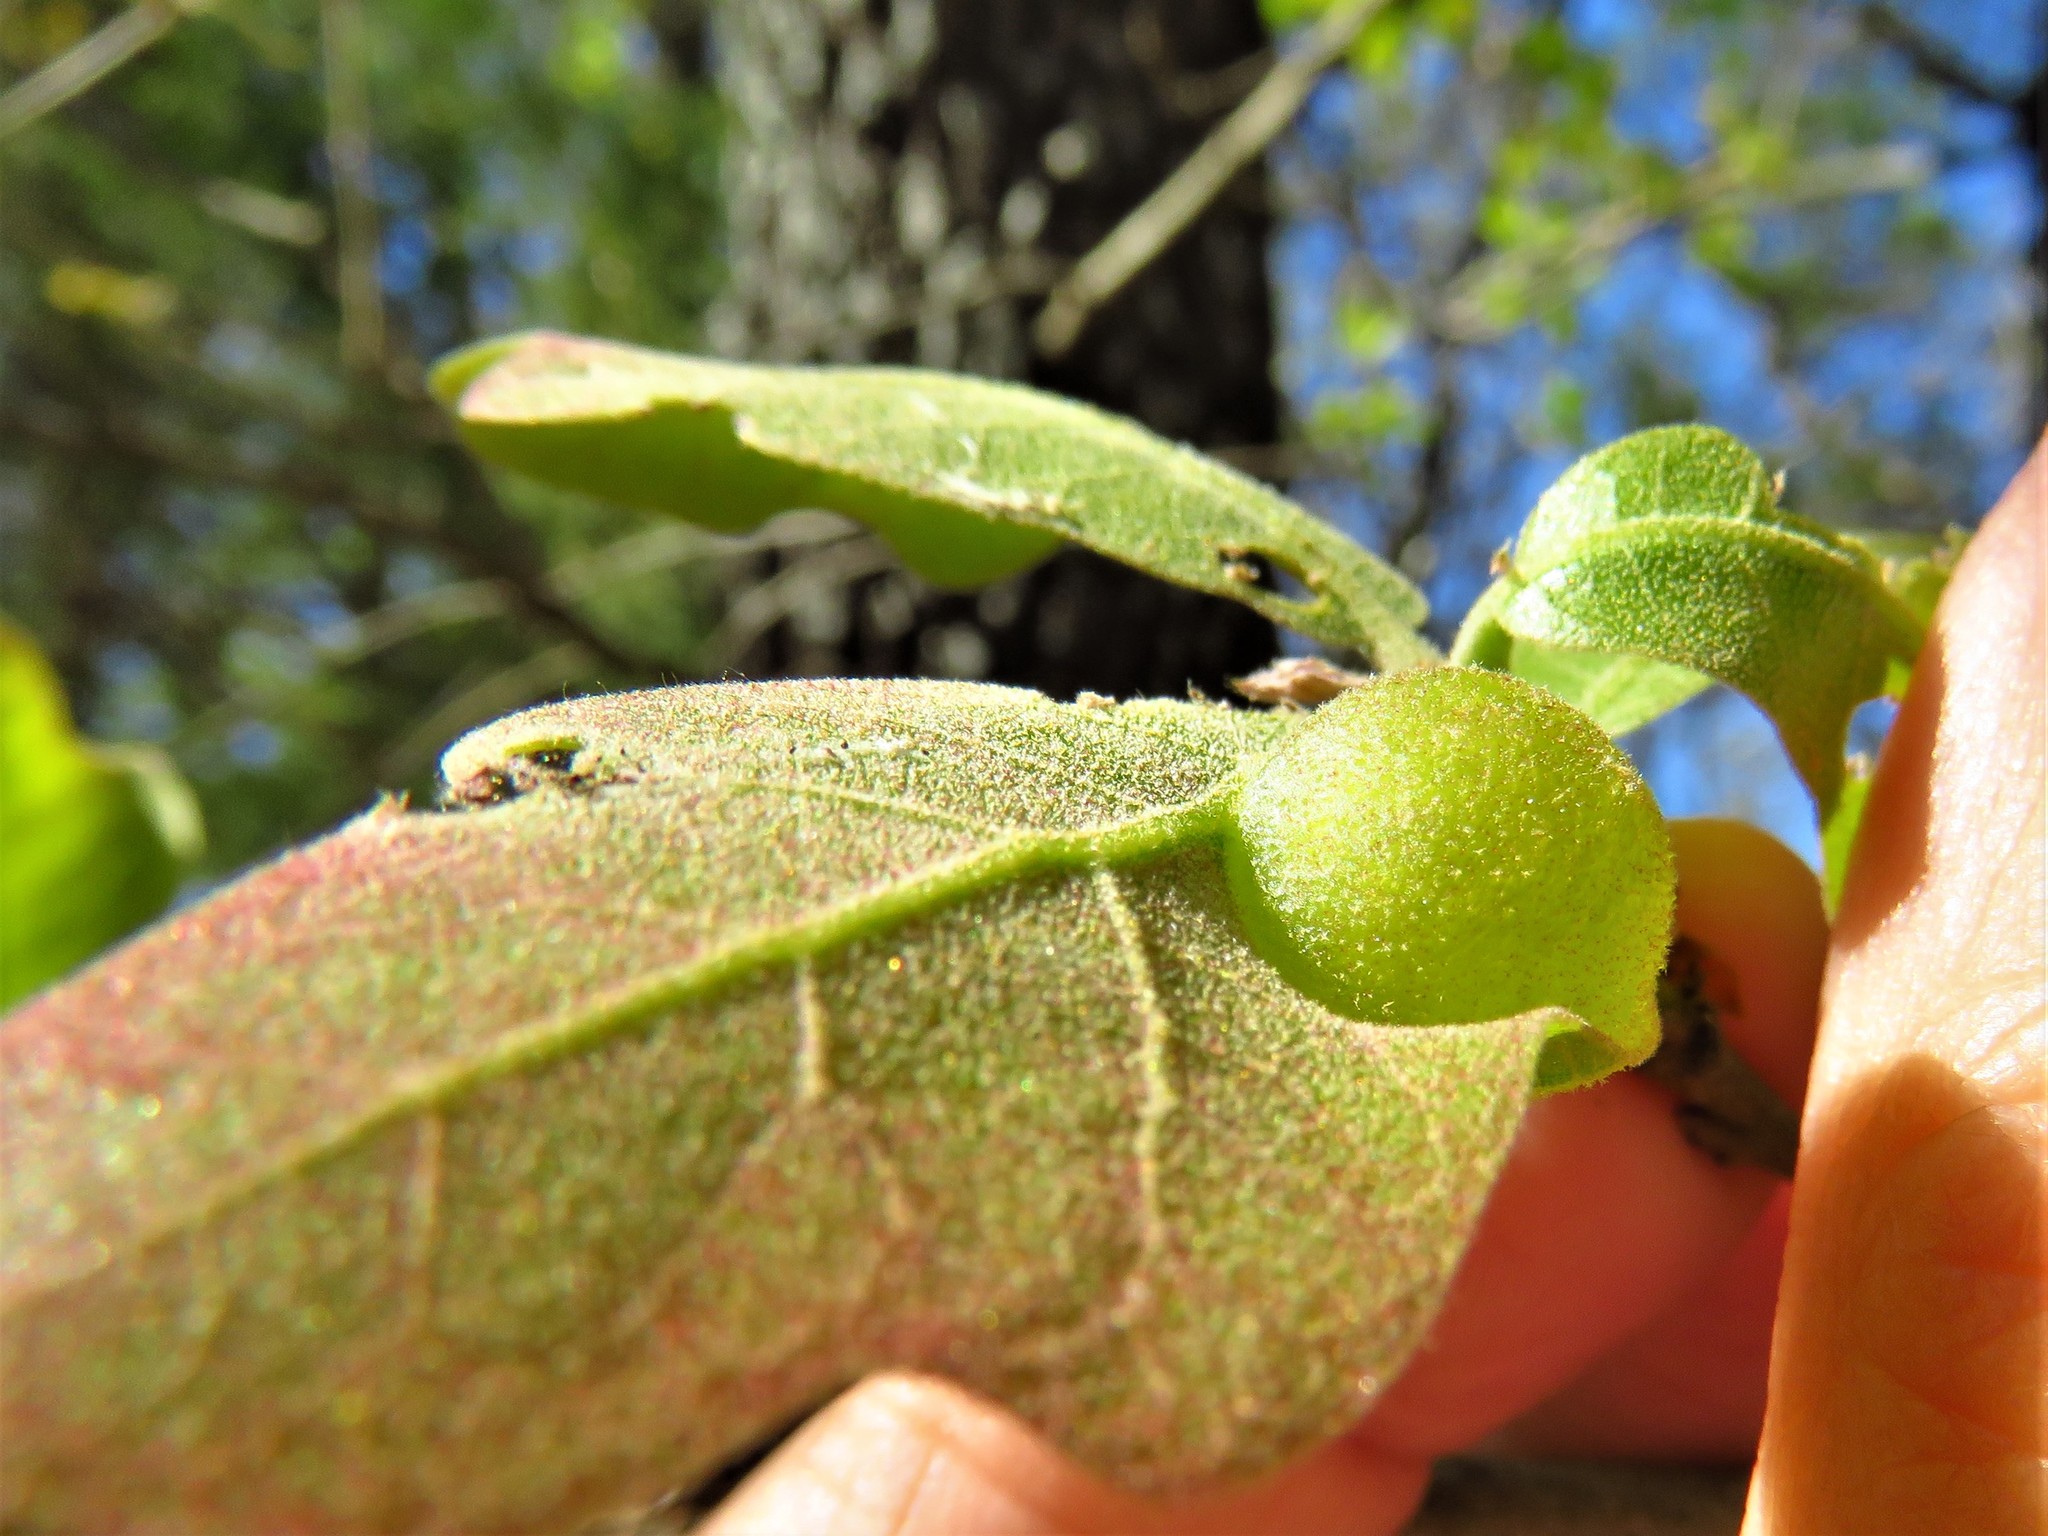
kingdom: Animalia
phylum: Arthropoda
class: Insecta
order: Hymenoptera
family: Cynipidae
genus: Dryocosmus
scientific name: Dryocosmus quercuspalustris
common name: Succulent oak gall wasp
